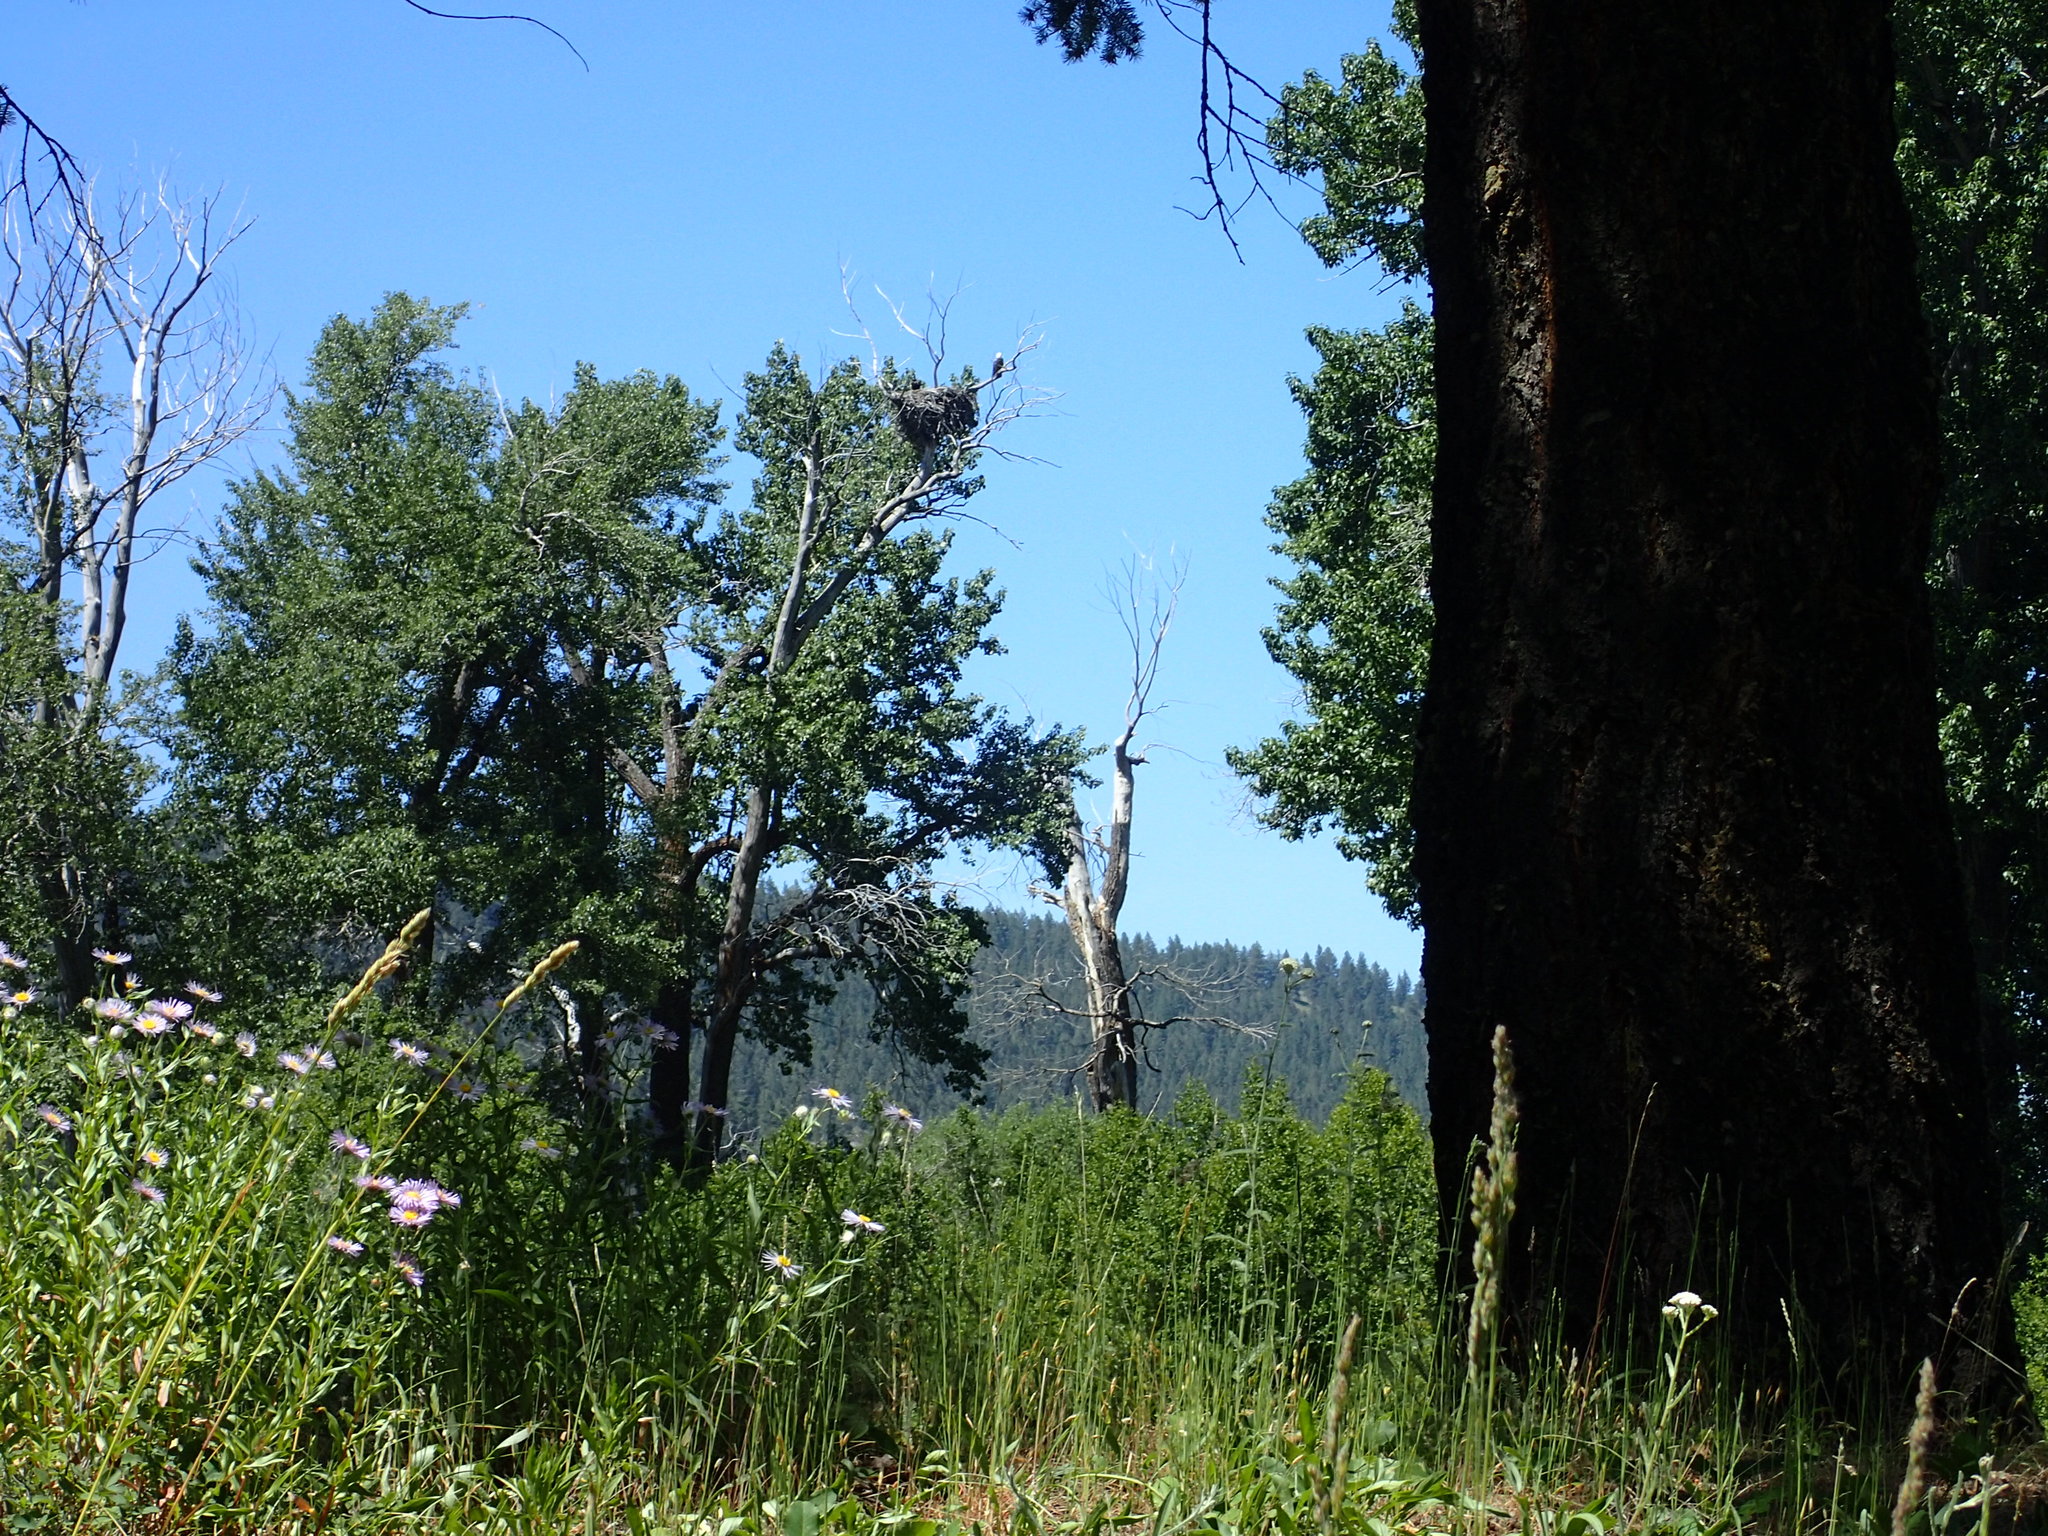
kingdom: Animalia
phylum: Chordata
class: Aves
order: Accipitriformes
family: Accipitridae
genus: Haliaeetus
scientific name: Haliaeetus leucocephalus
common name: Bald eagle
